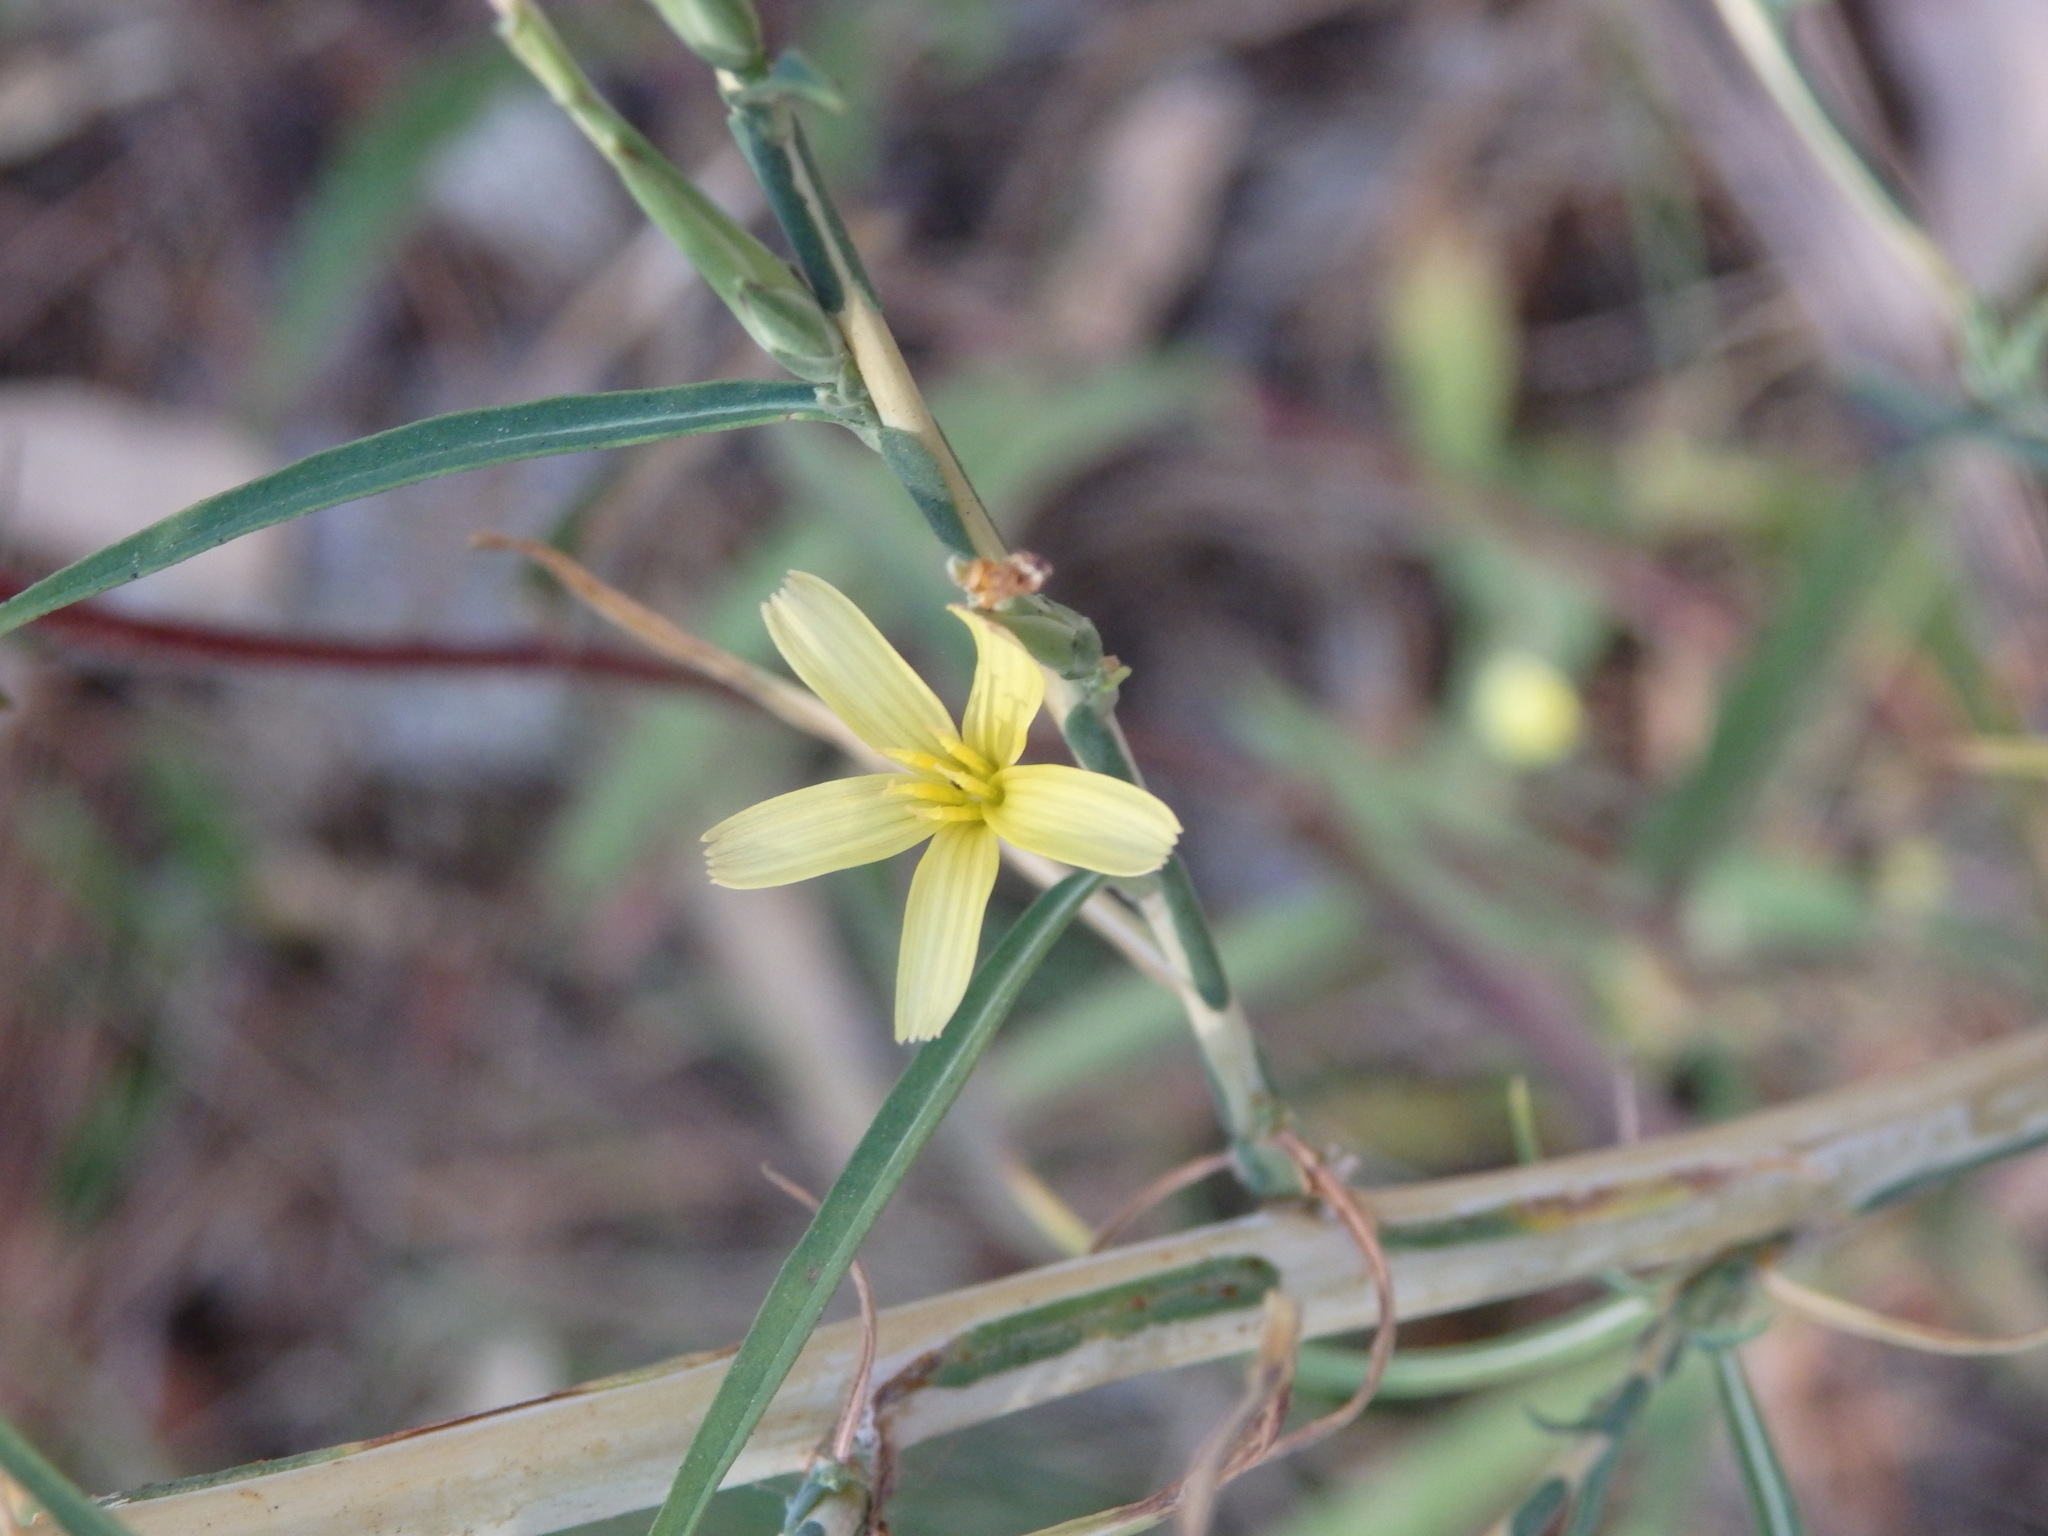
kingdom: Plantae
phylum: Tracheophyta
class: Magnoliopsida
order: Asterales
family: Asteraceae
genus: Lactuca
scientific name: Lactuca viminea
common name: Pliant lettuce
